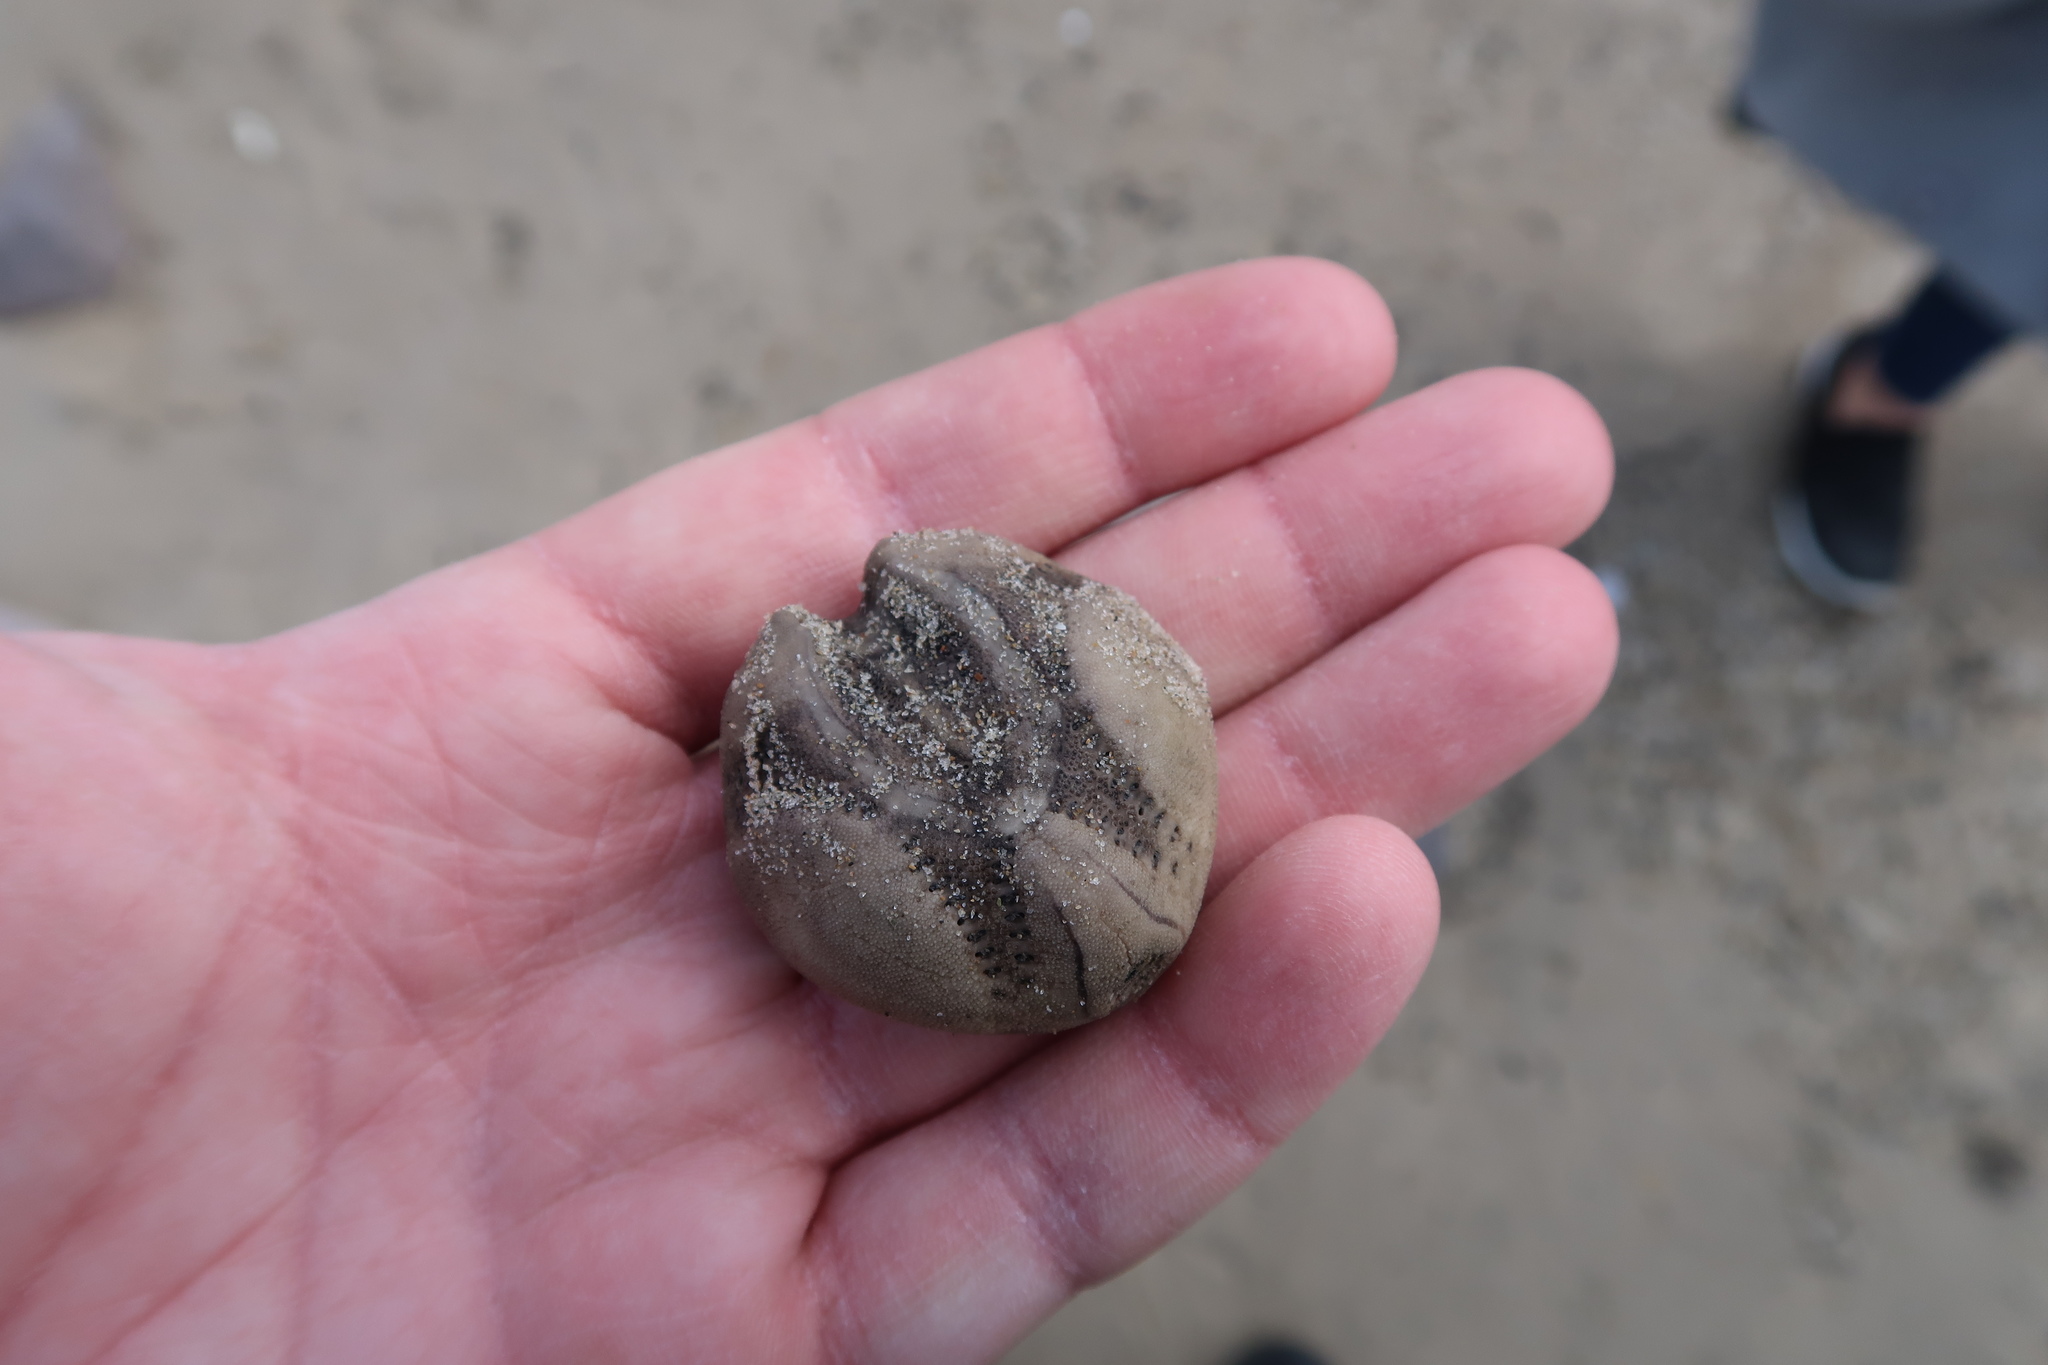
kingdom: Animalia
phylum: Echinodermata
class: Echinoidea
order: Spatangoida
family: Loveniidae
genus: Echinocardium
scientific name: Echinocardium cordatum
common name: Heart-urchin
